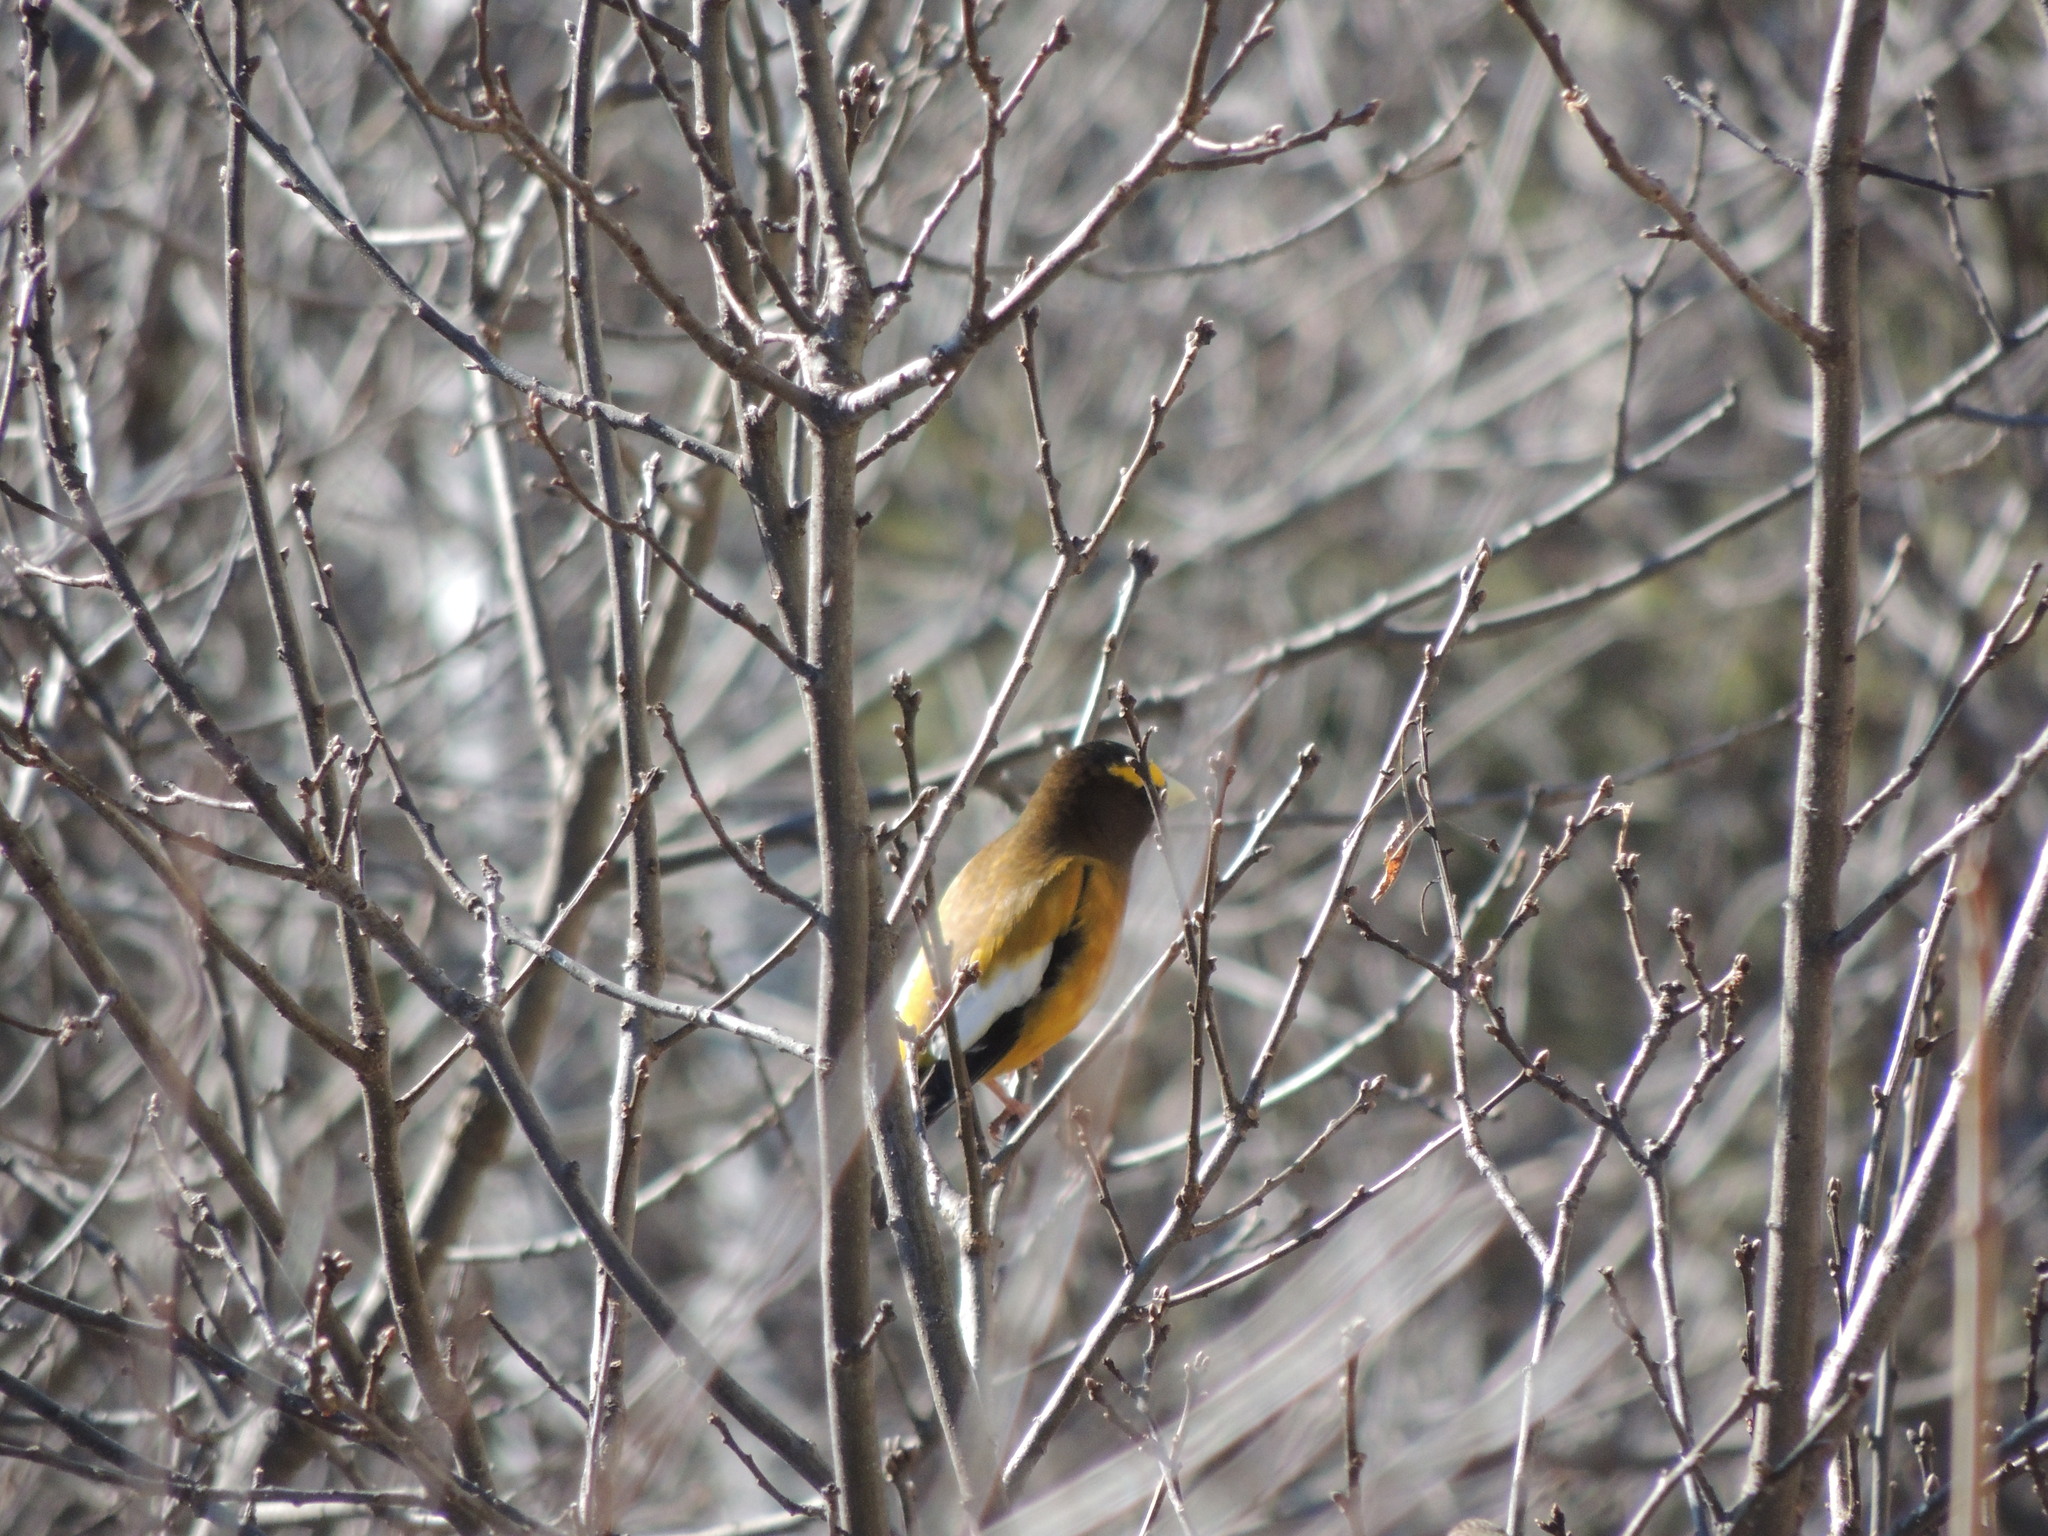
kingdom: Animalia
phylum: Chordata
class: Aves
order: Passeriformes
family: Fringillidae
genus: Hesperiphona
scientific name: Hesperiphona vespertina
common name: Evening grosbeak
